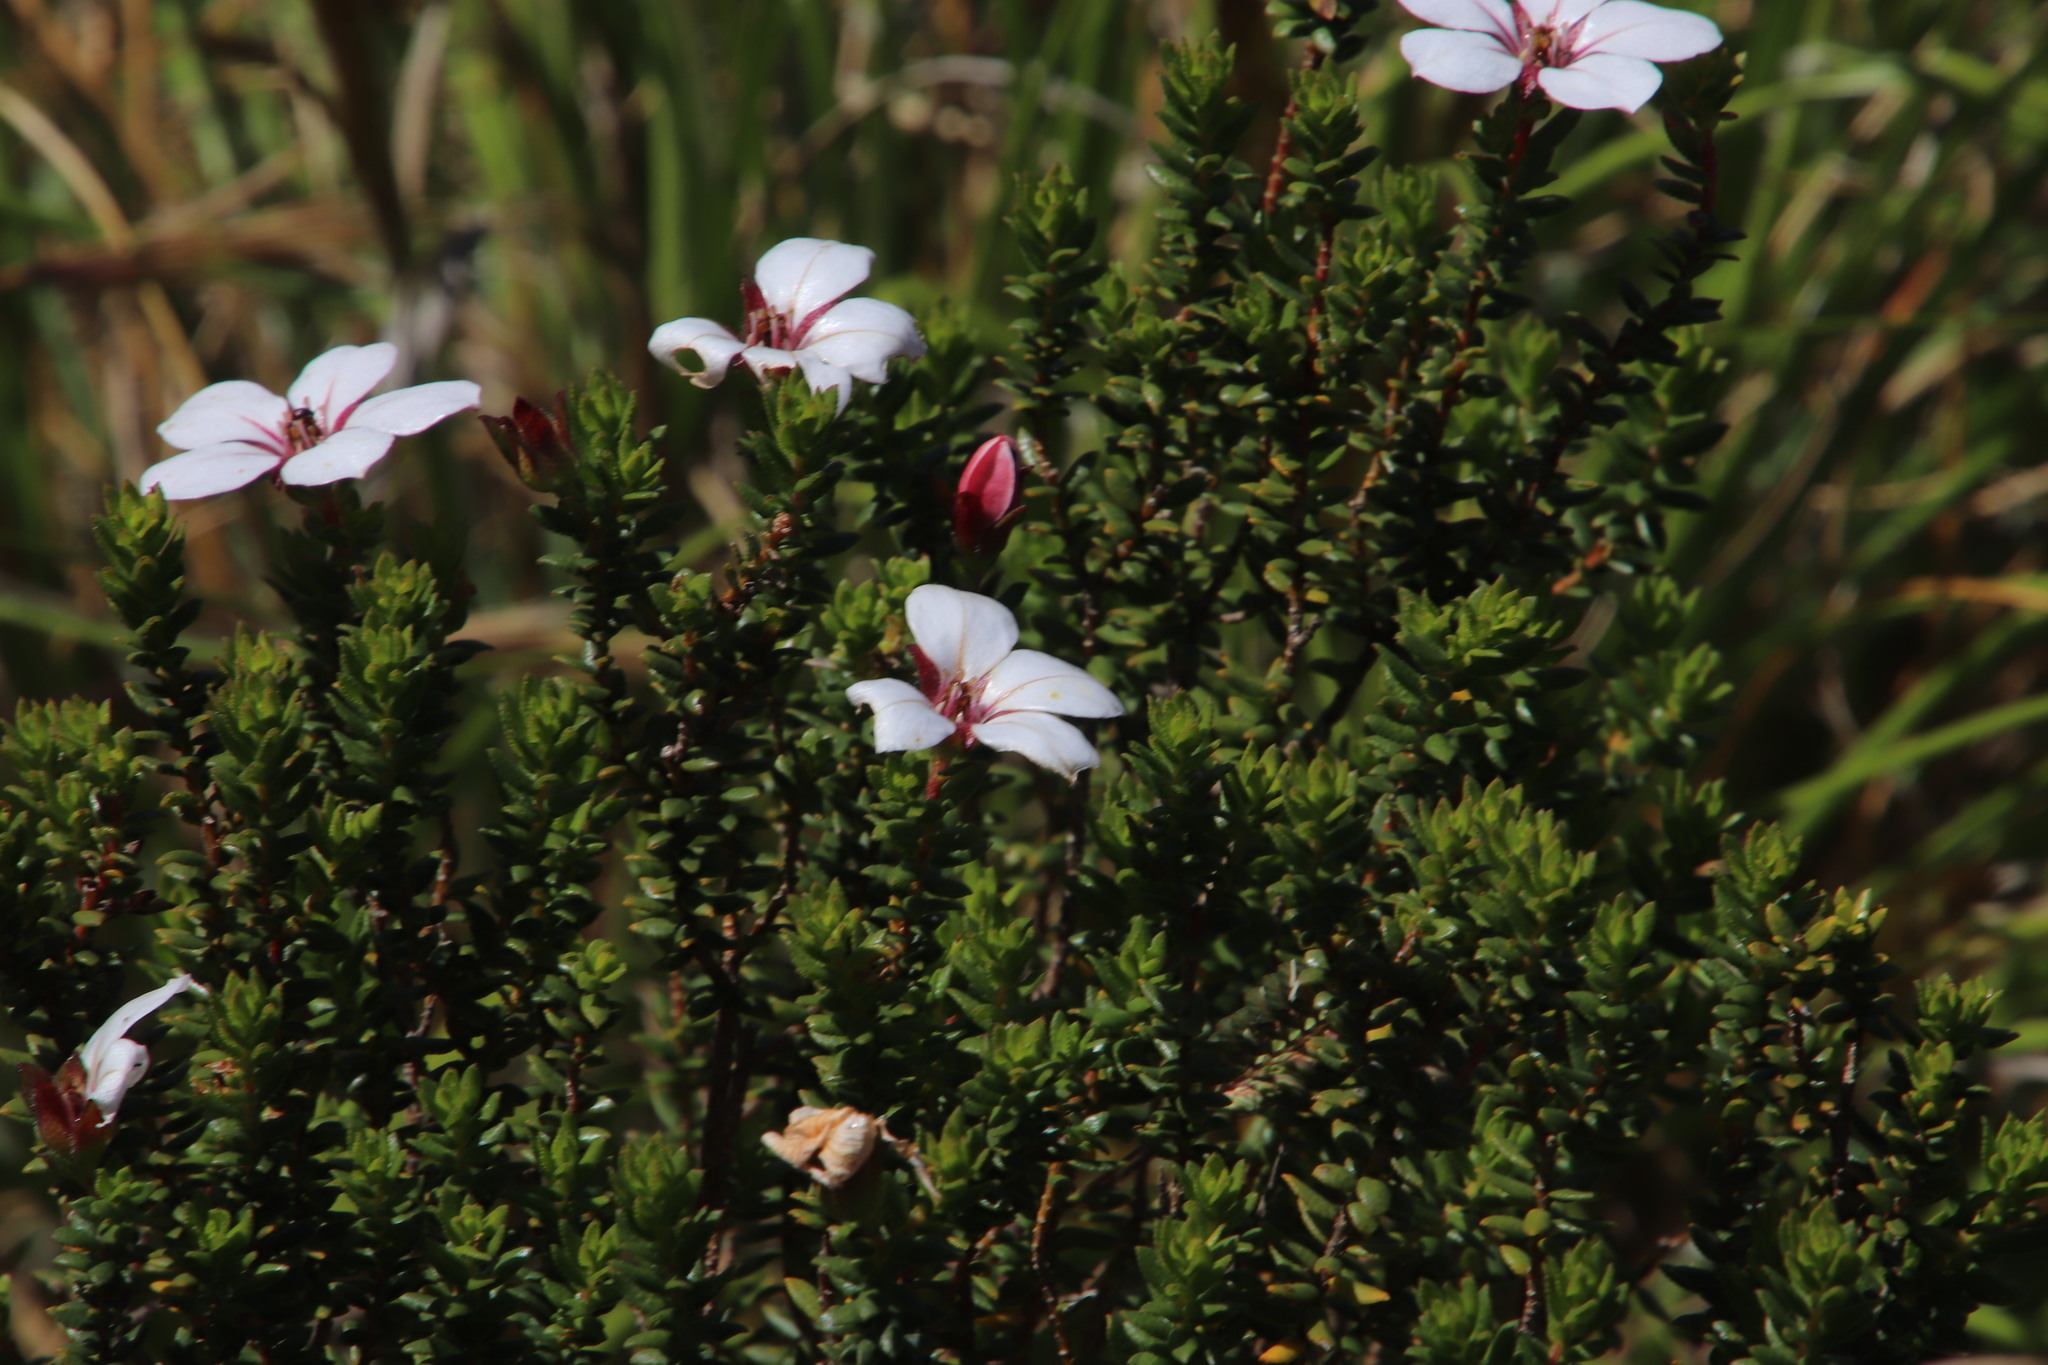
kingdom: Plantae
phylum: Tracheophyta
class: Magnoliopsida
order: Sapindales
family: Rutaceae
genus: Adenandra
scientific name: Adenandra villosa
